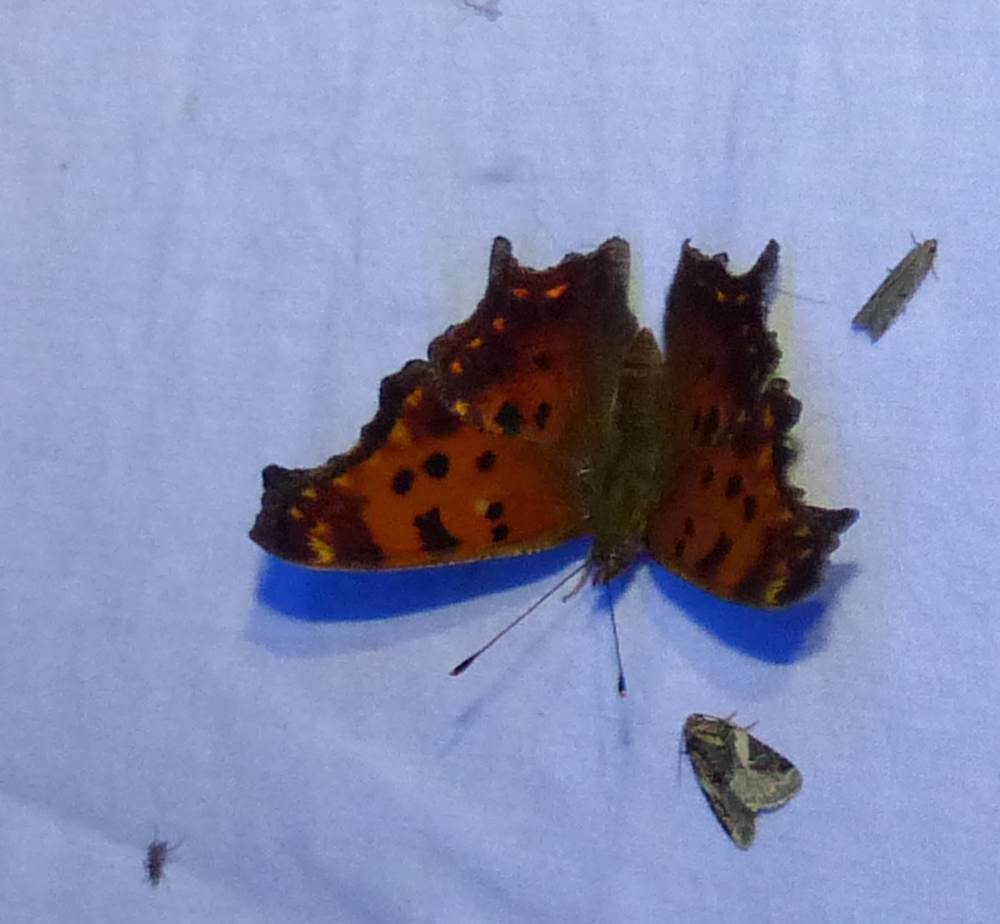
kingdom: Animalia
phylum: Arthropoda
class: Insecta
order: Lepidoptera
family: Nymphalidae
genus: Polygonia
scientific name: Polygonia comma
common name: Eastern comma
